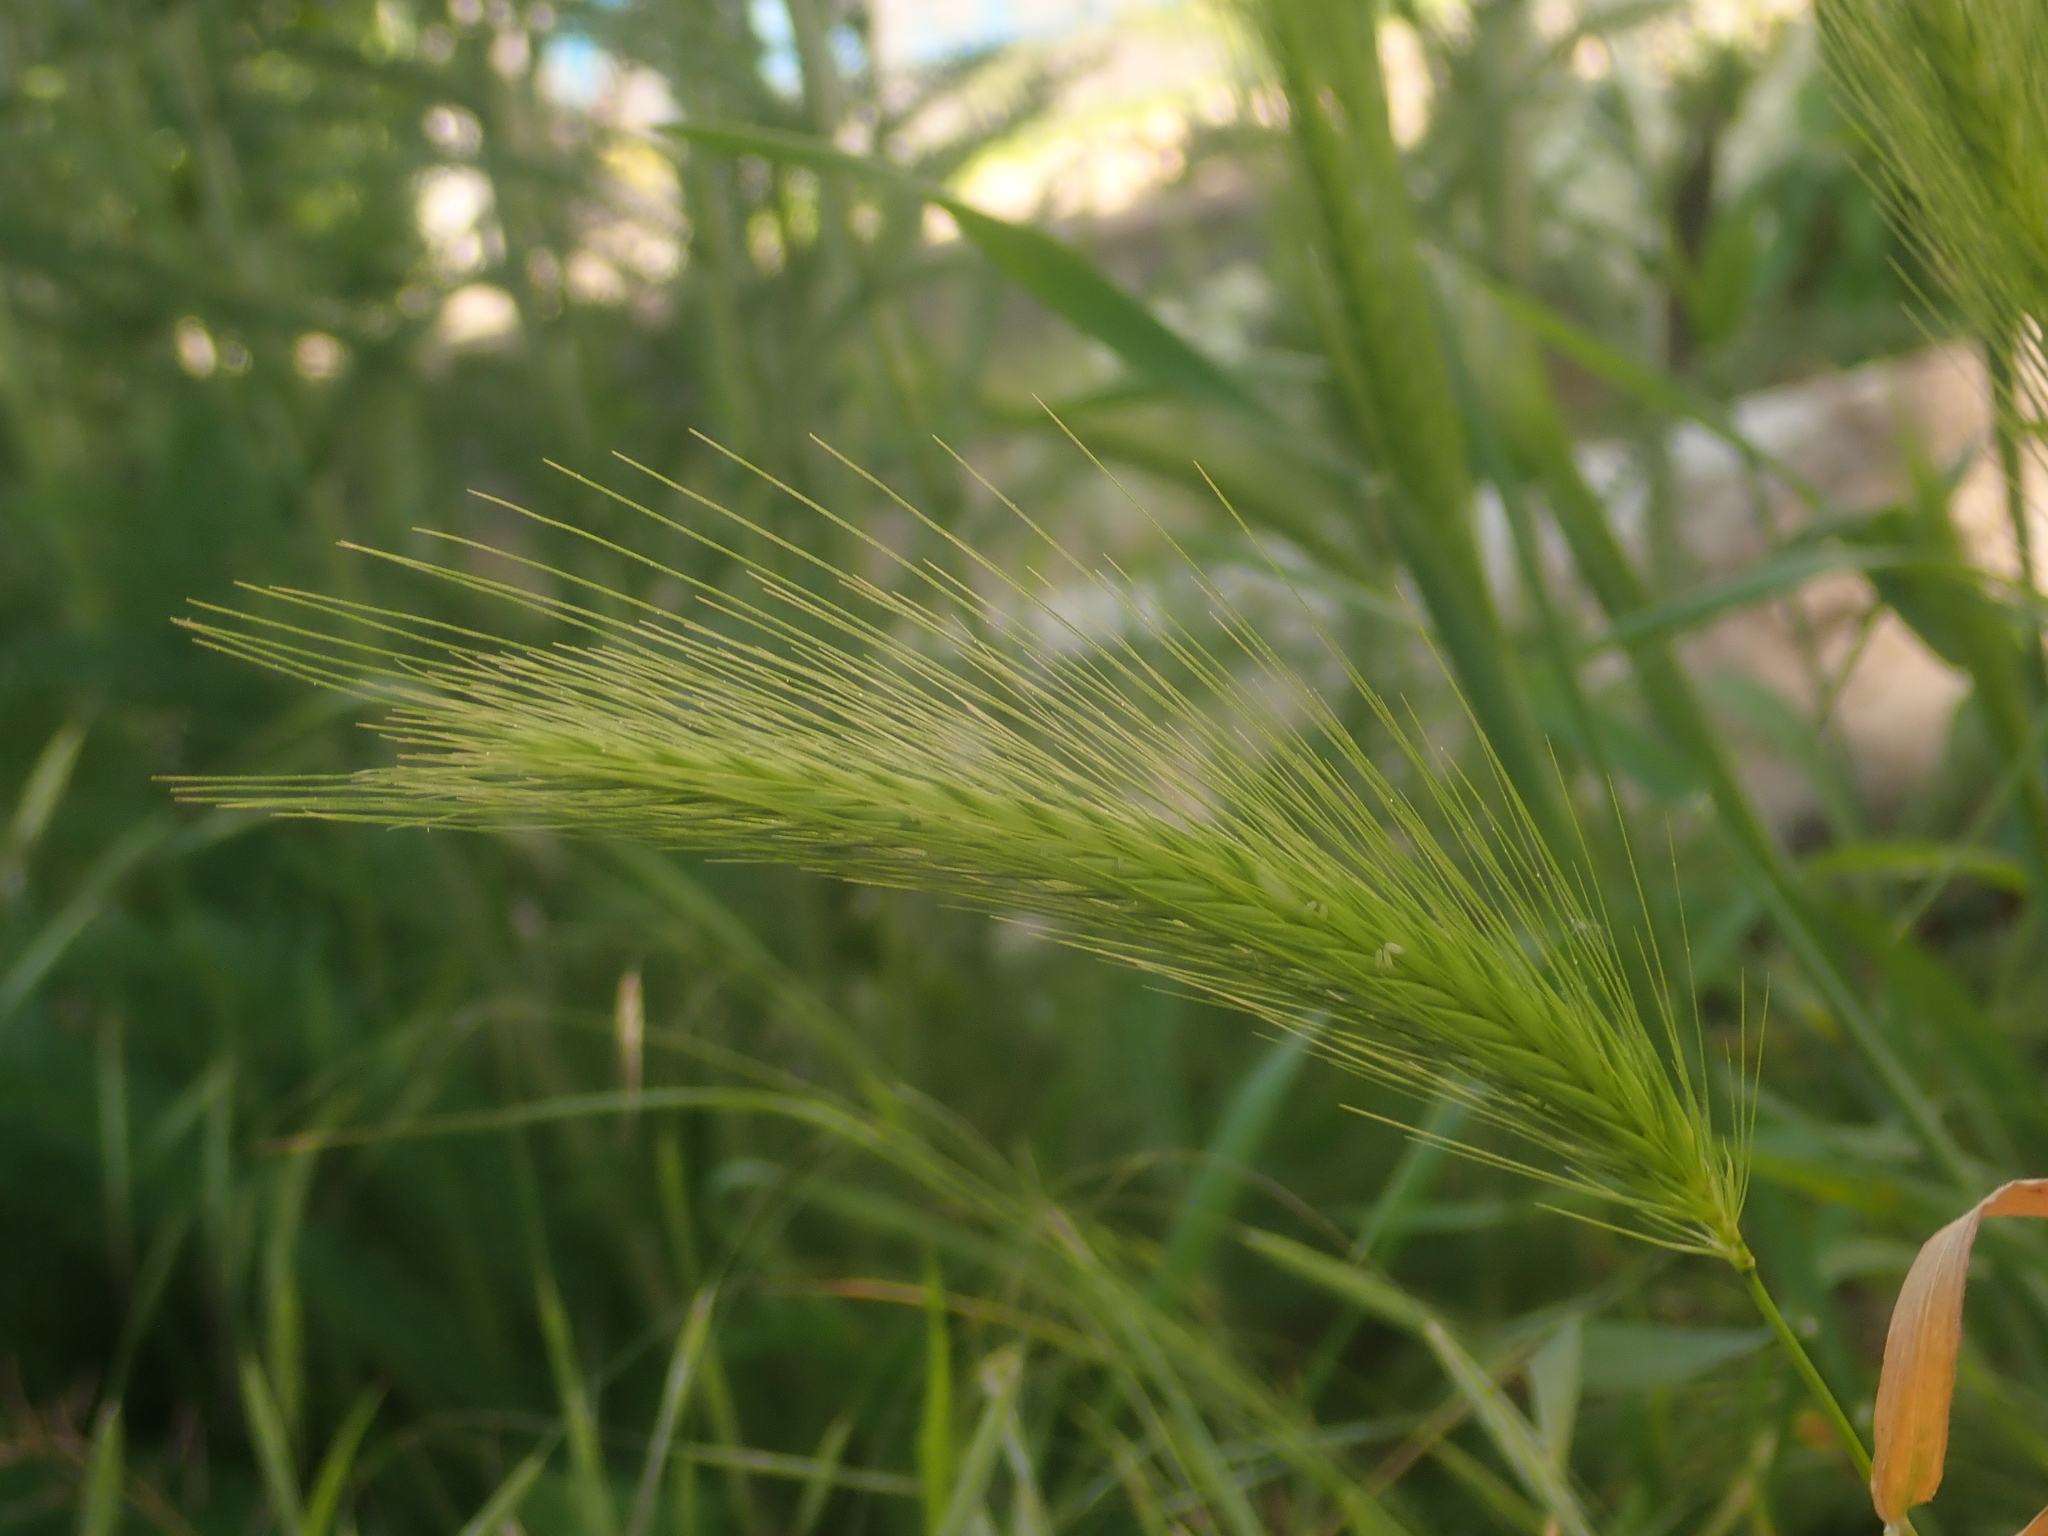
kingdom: Plantae
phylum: Tracheophyta
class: Liliopsida
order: Poales
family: Poaceae
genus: Hordeum
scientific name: Hordeum murinum
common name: Wall barley
